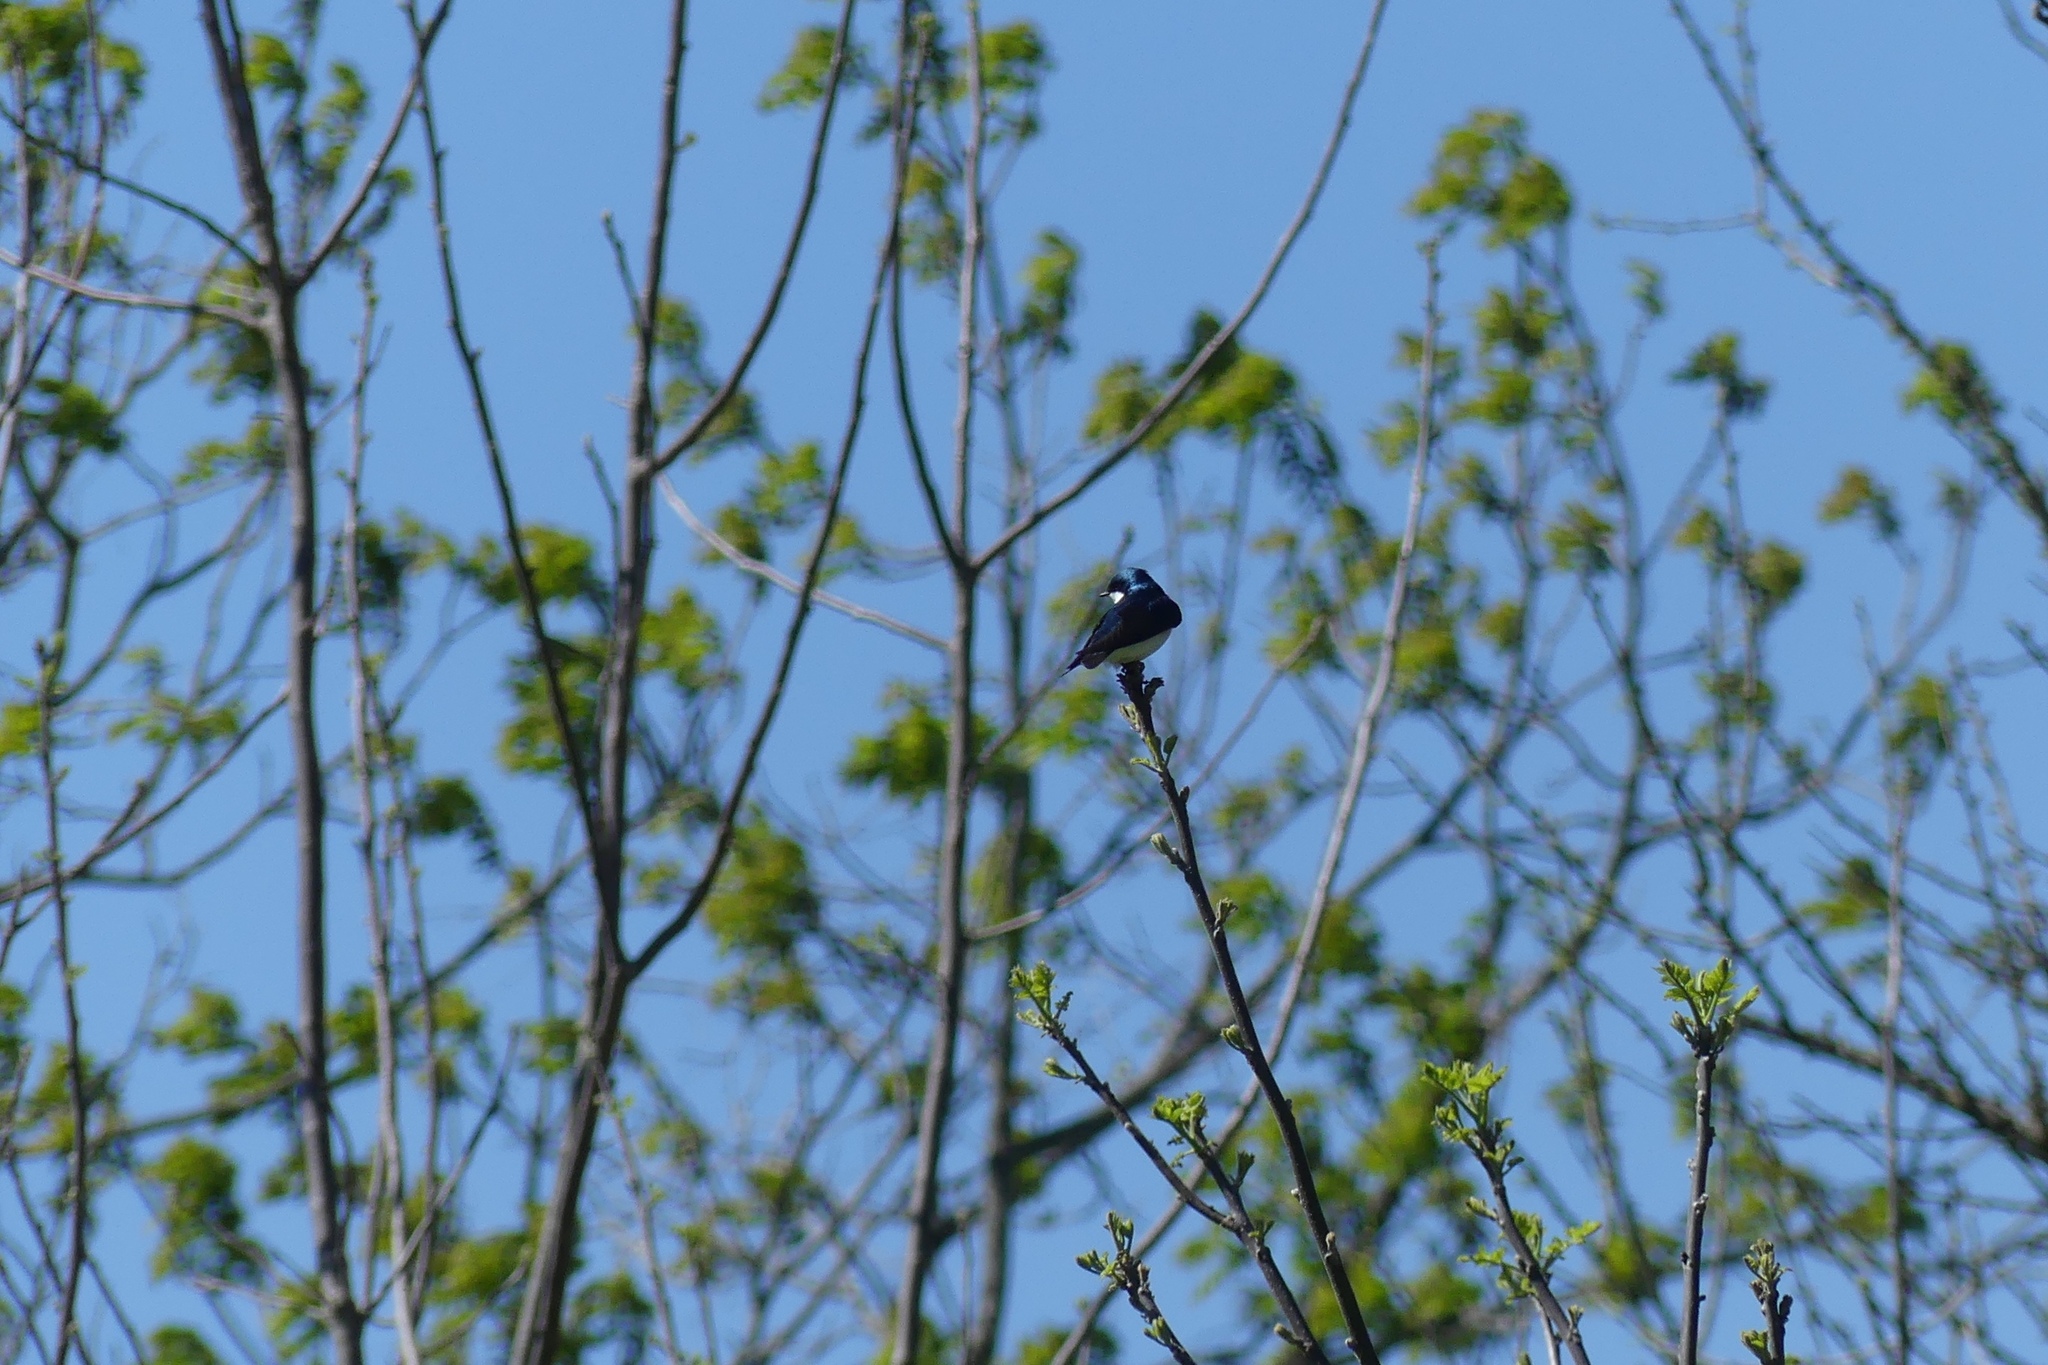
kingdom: Animalia
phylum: Chordata
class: Aves
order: Passeriformes
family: Hirundinidae
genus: Tachycineta
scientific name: Tachycineta bicolor
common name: Tree swallow
